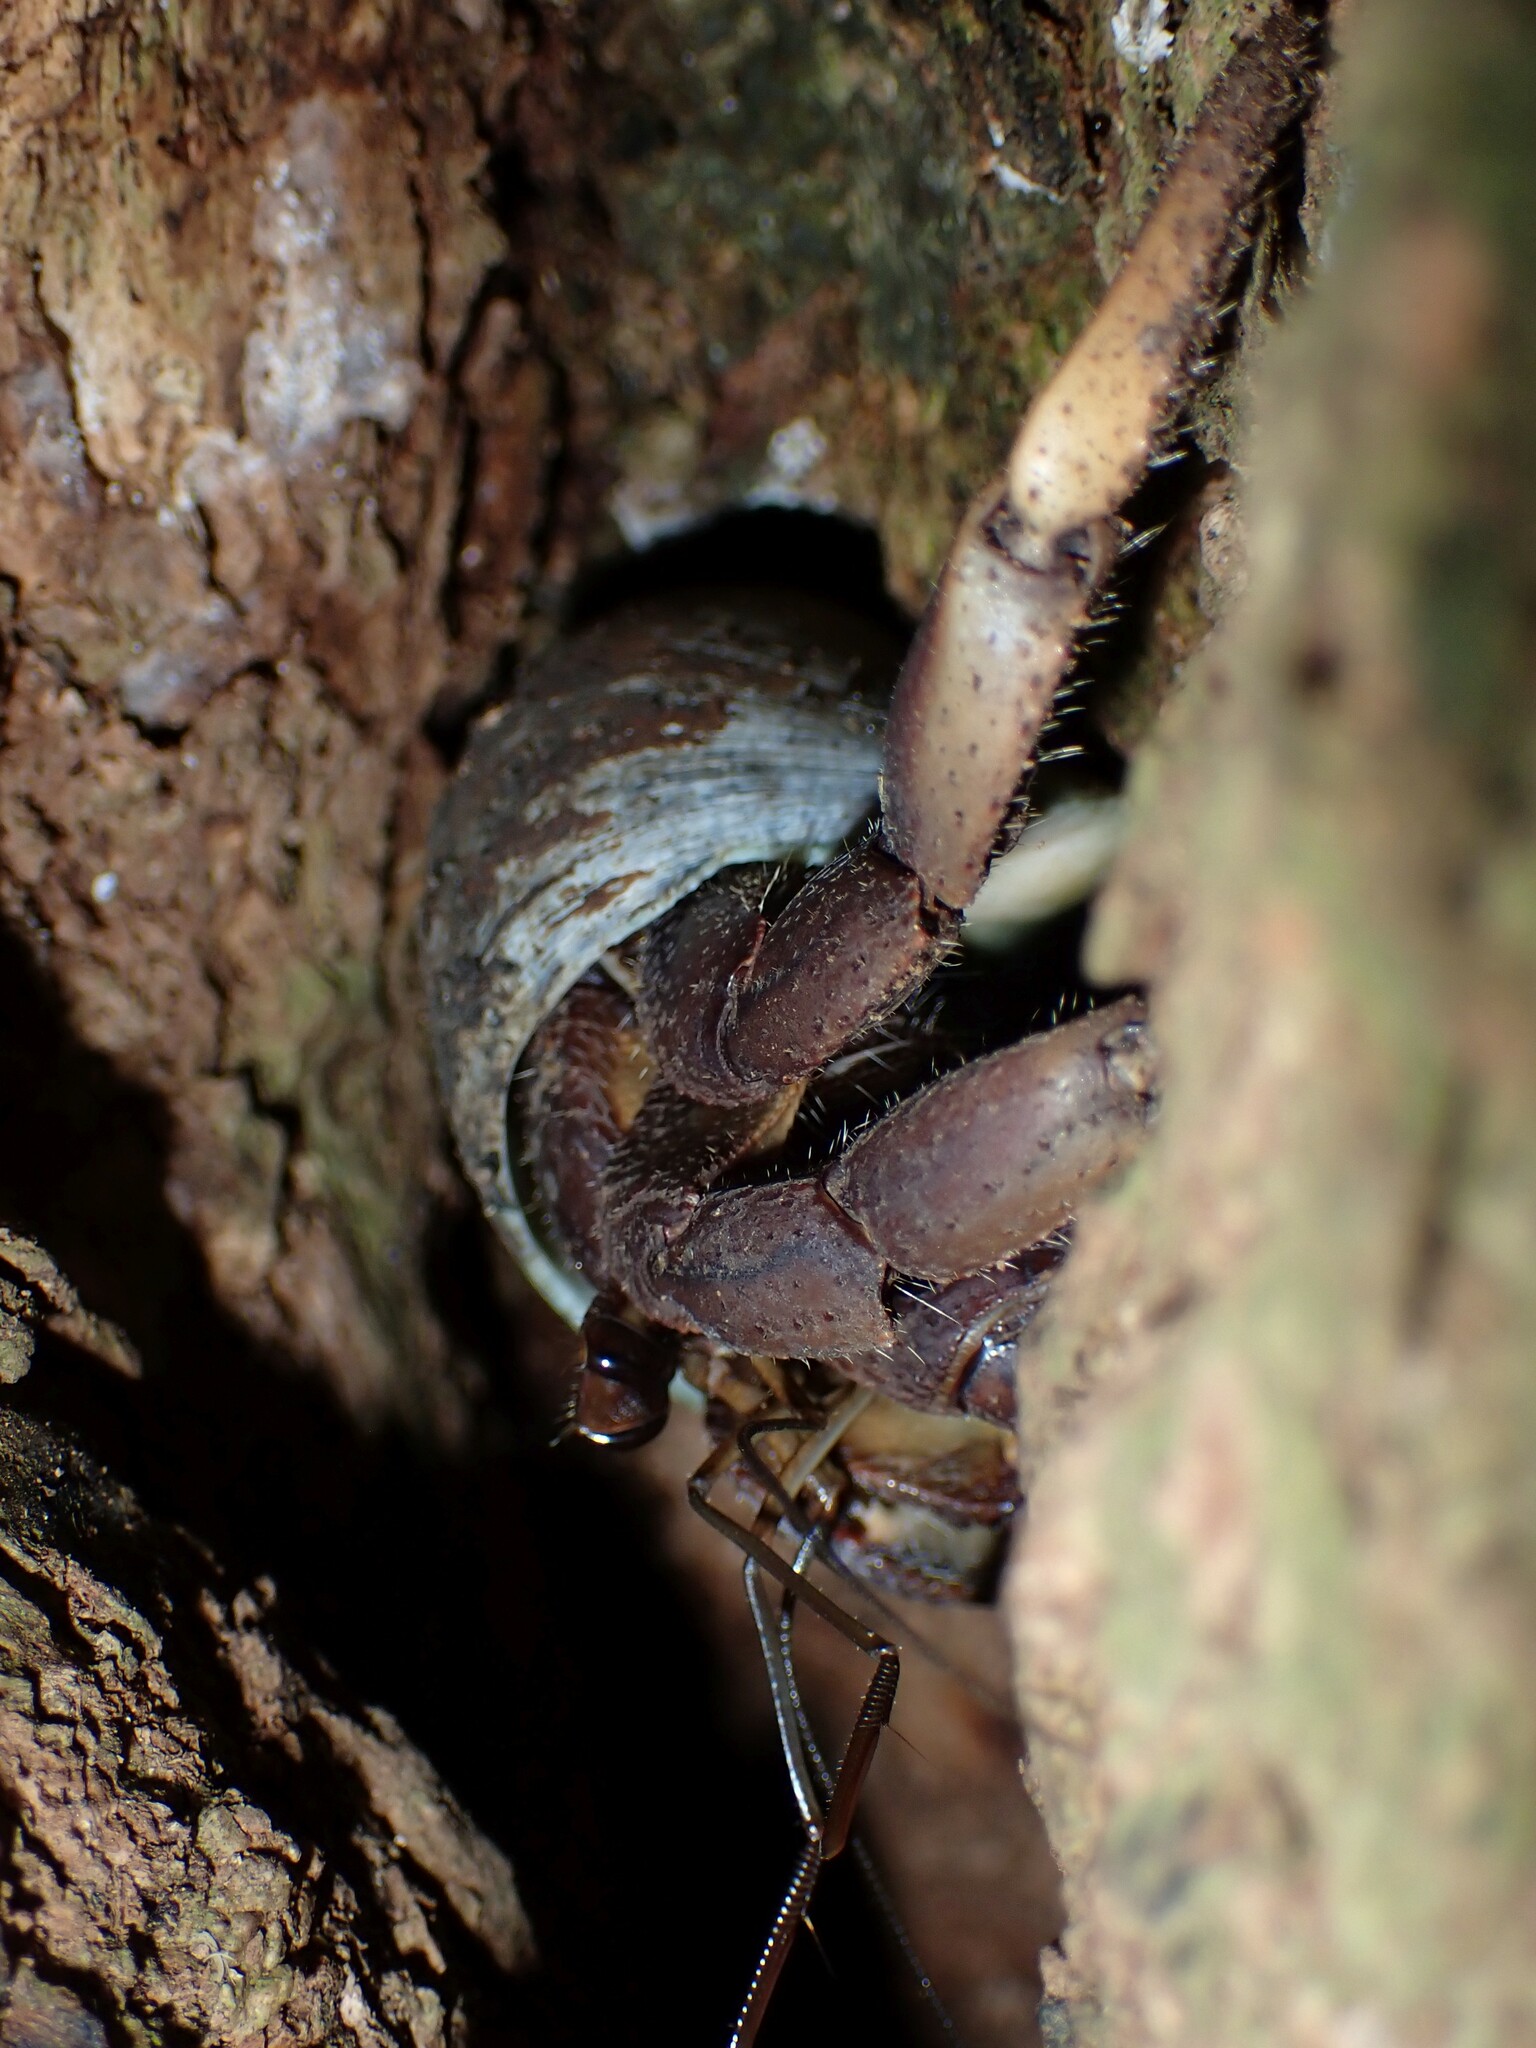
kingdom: Animalia
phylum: Arthropoda
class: Malacostraca
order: Decapoda
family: Coenobitidae
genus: Coenobita
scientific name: Coenobita spinosus
